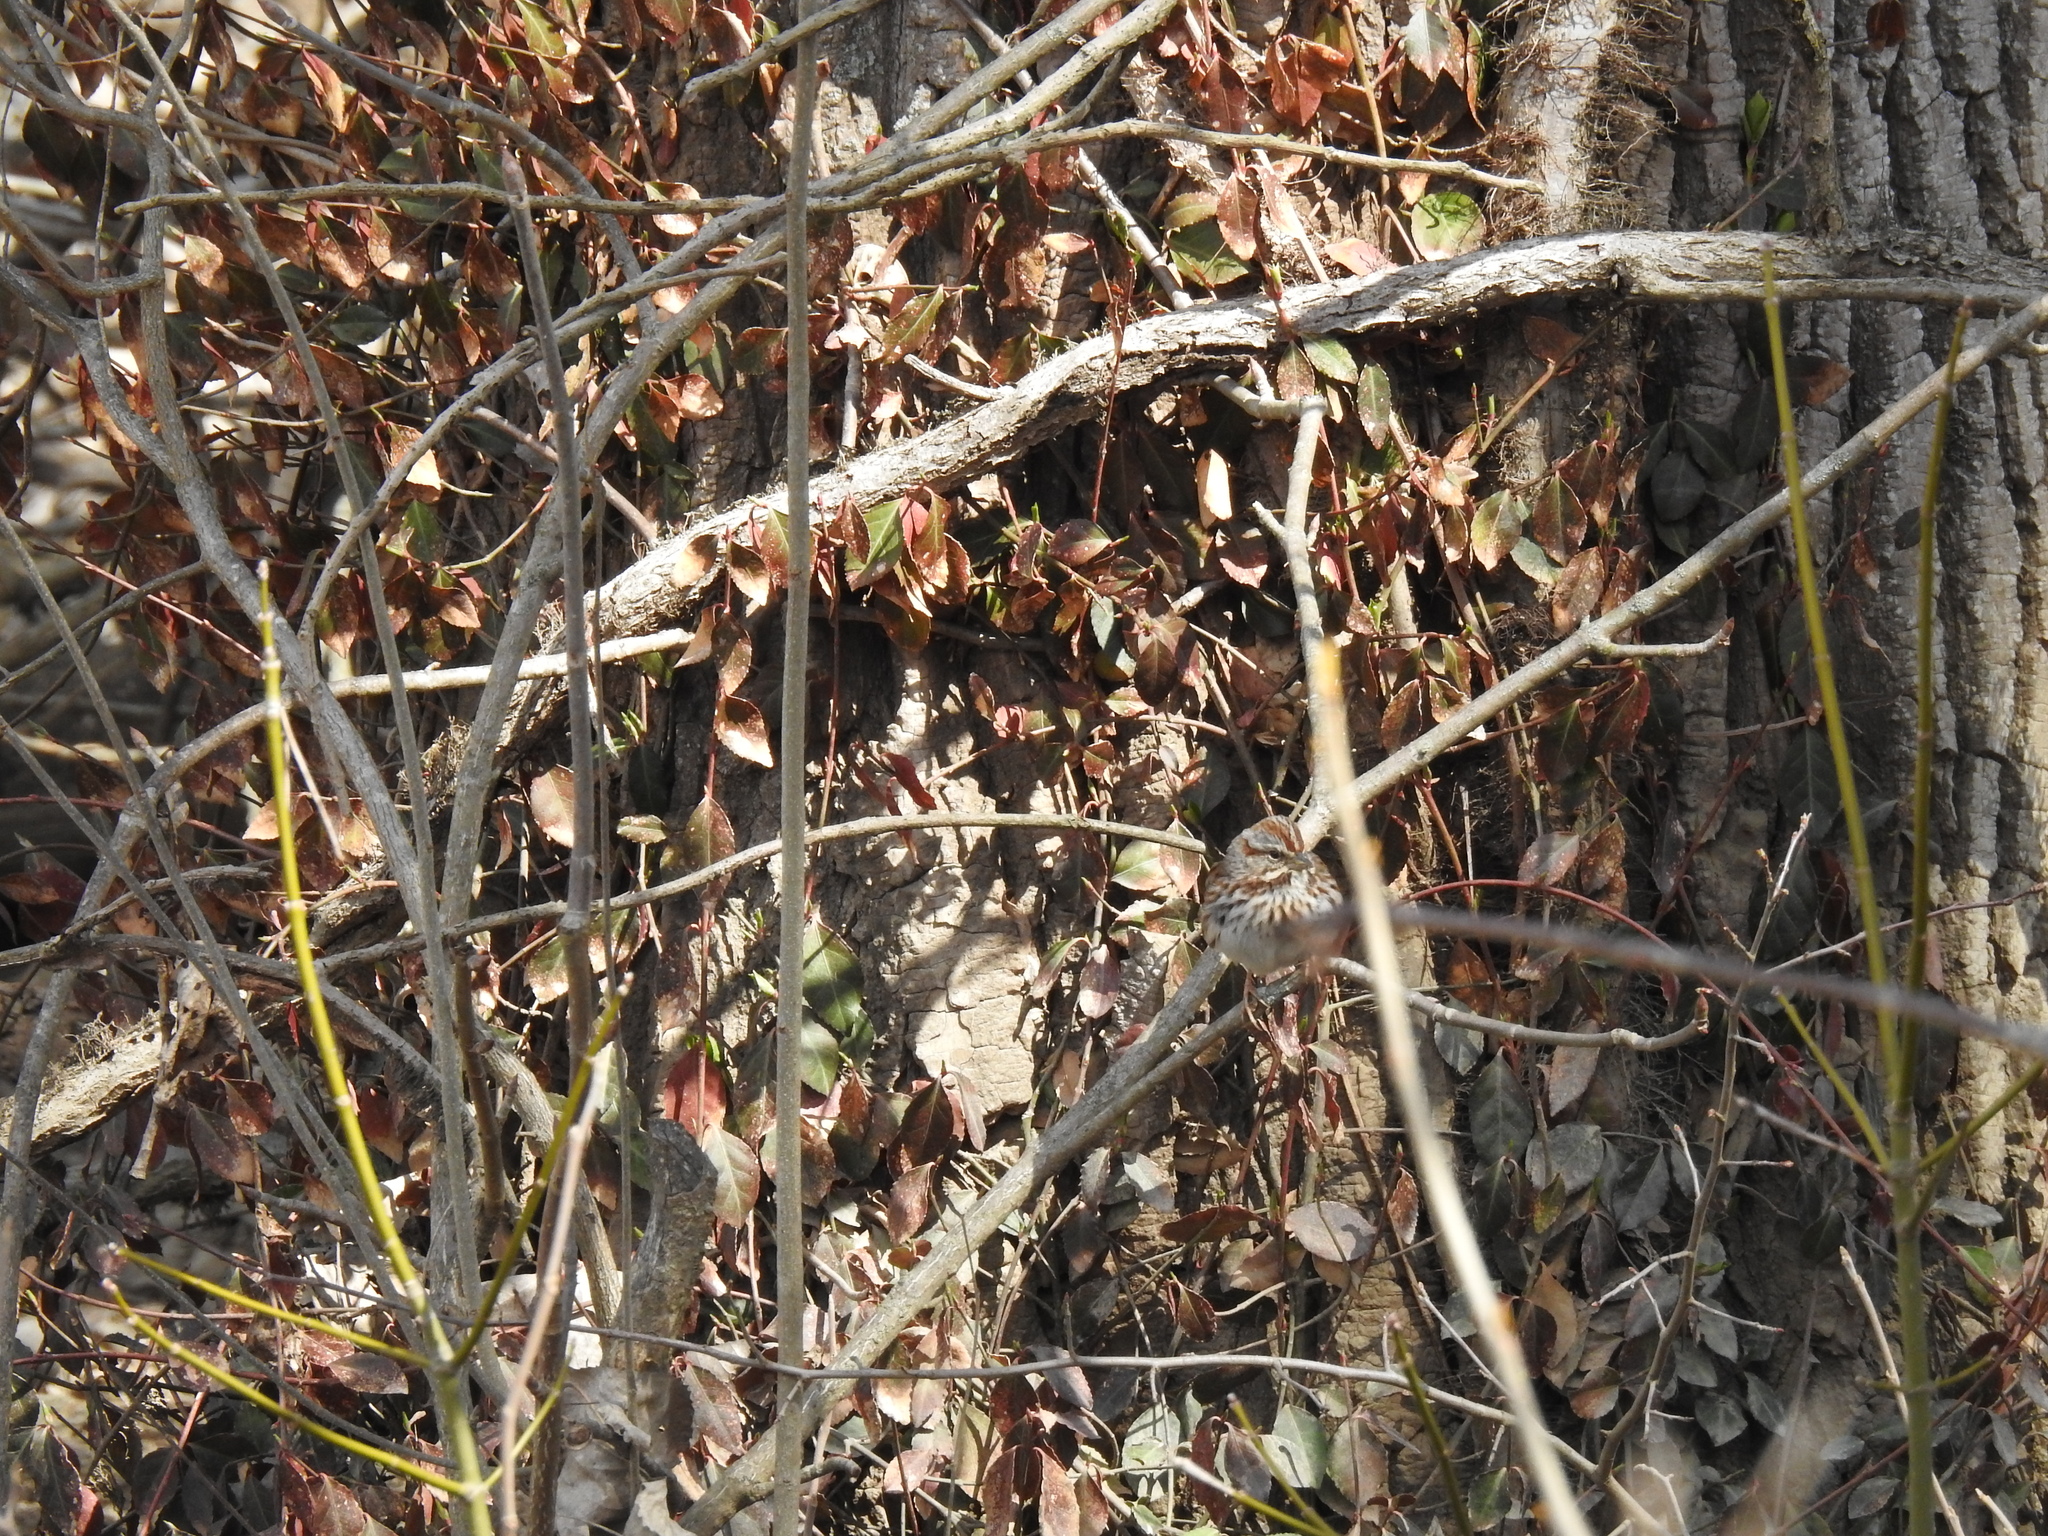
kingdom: Animalia
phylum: Chordata
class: Aves
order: Passeriformes
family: Passerellidae
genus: Melospiza
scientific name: Melospiza melodia
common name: Song sparrow
